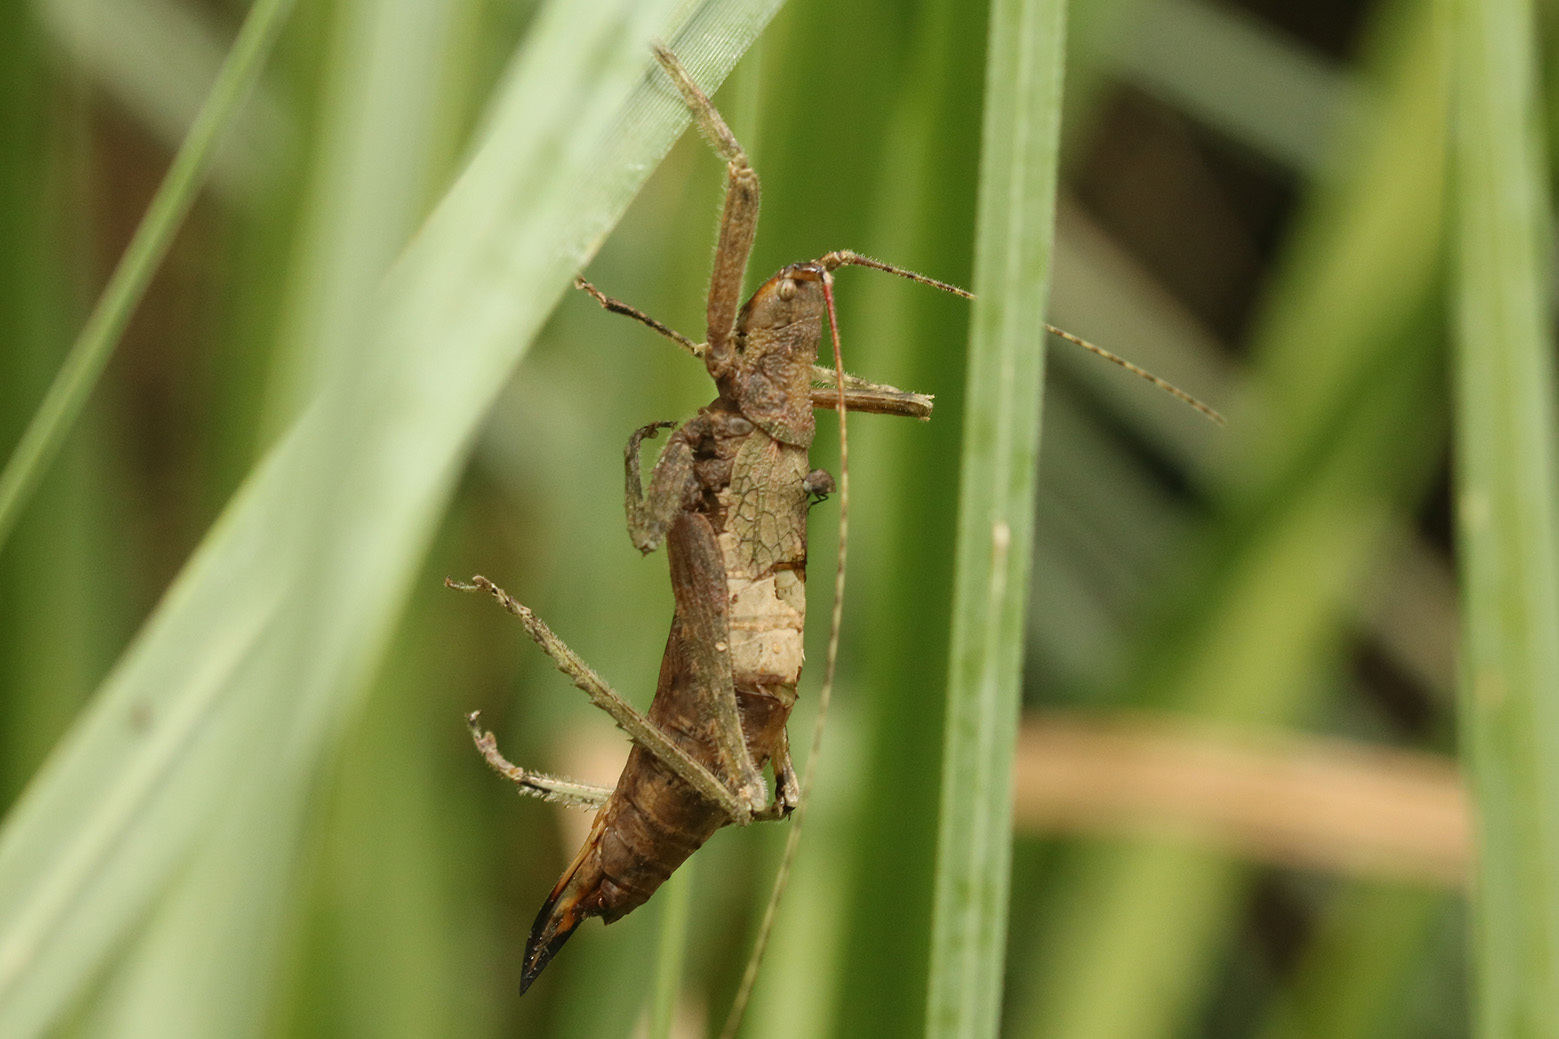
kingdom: Animalia
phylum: Arthropoda
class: Insecta
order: Orthoptera
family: Tettigoniidae
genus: Dasyscelus
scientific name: Dasyscelus normalis
